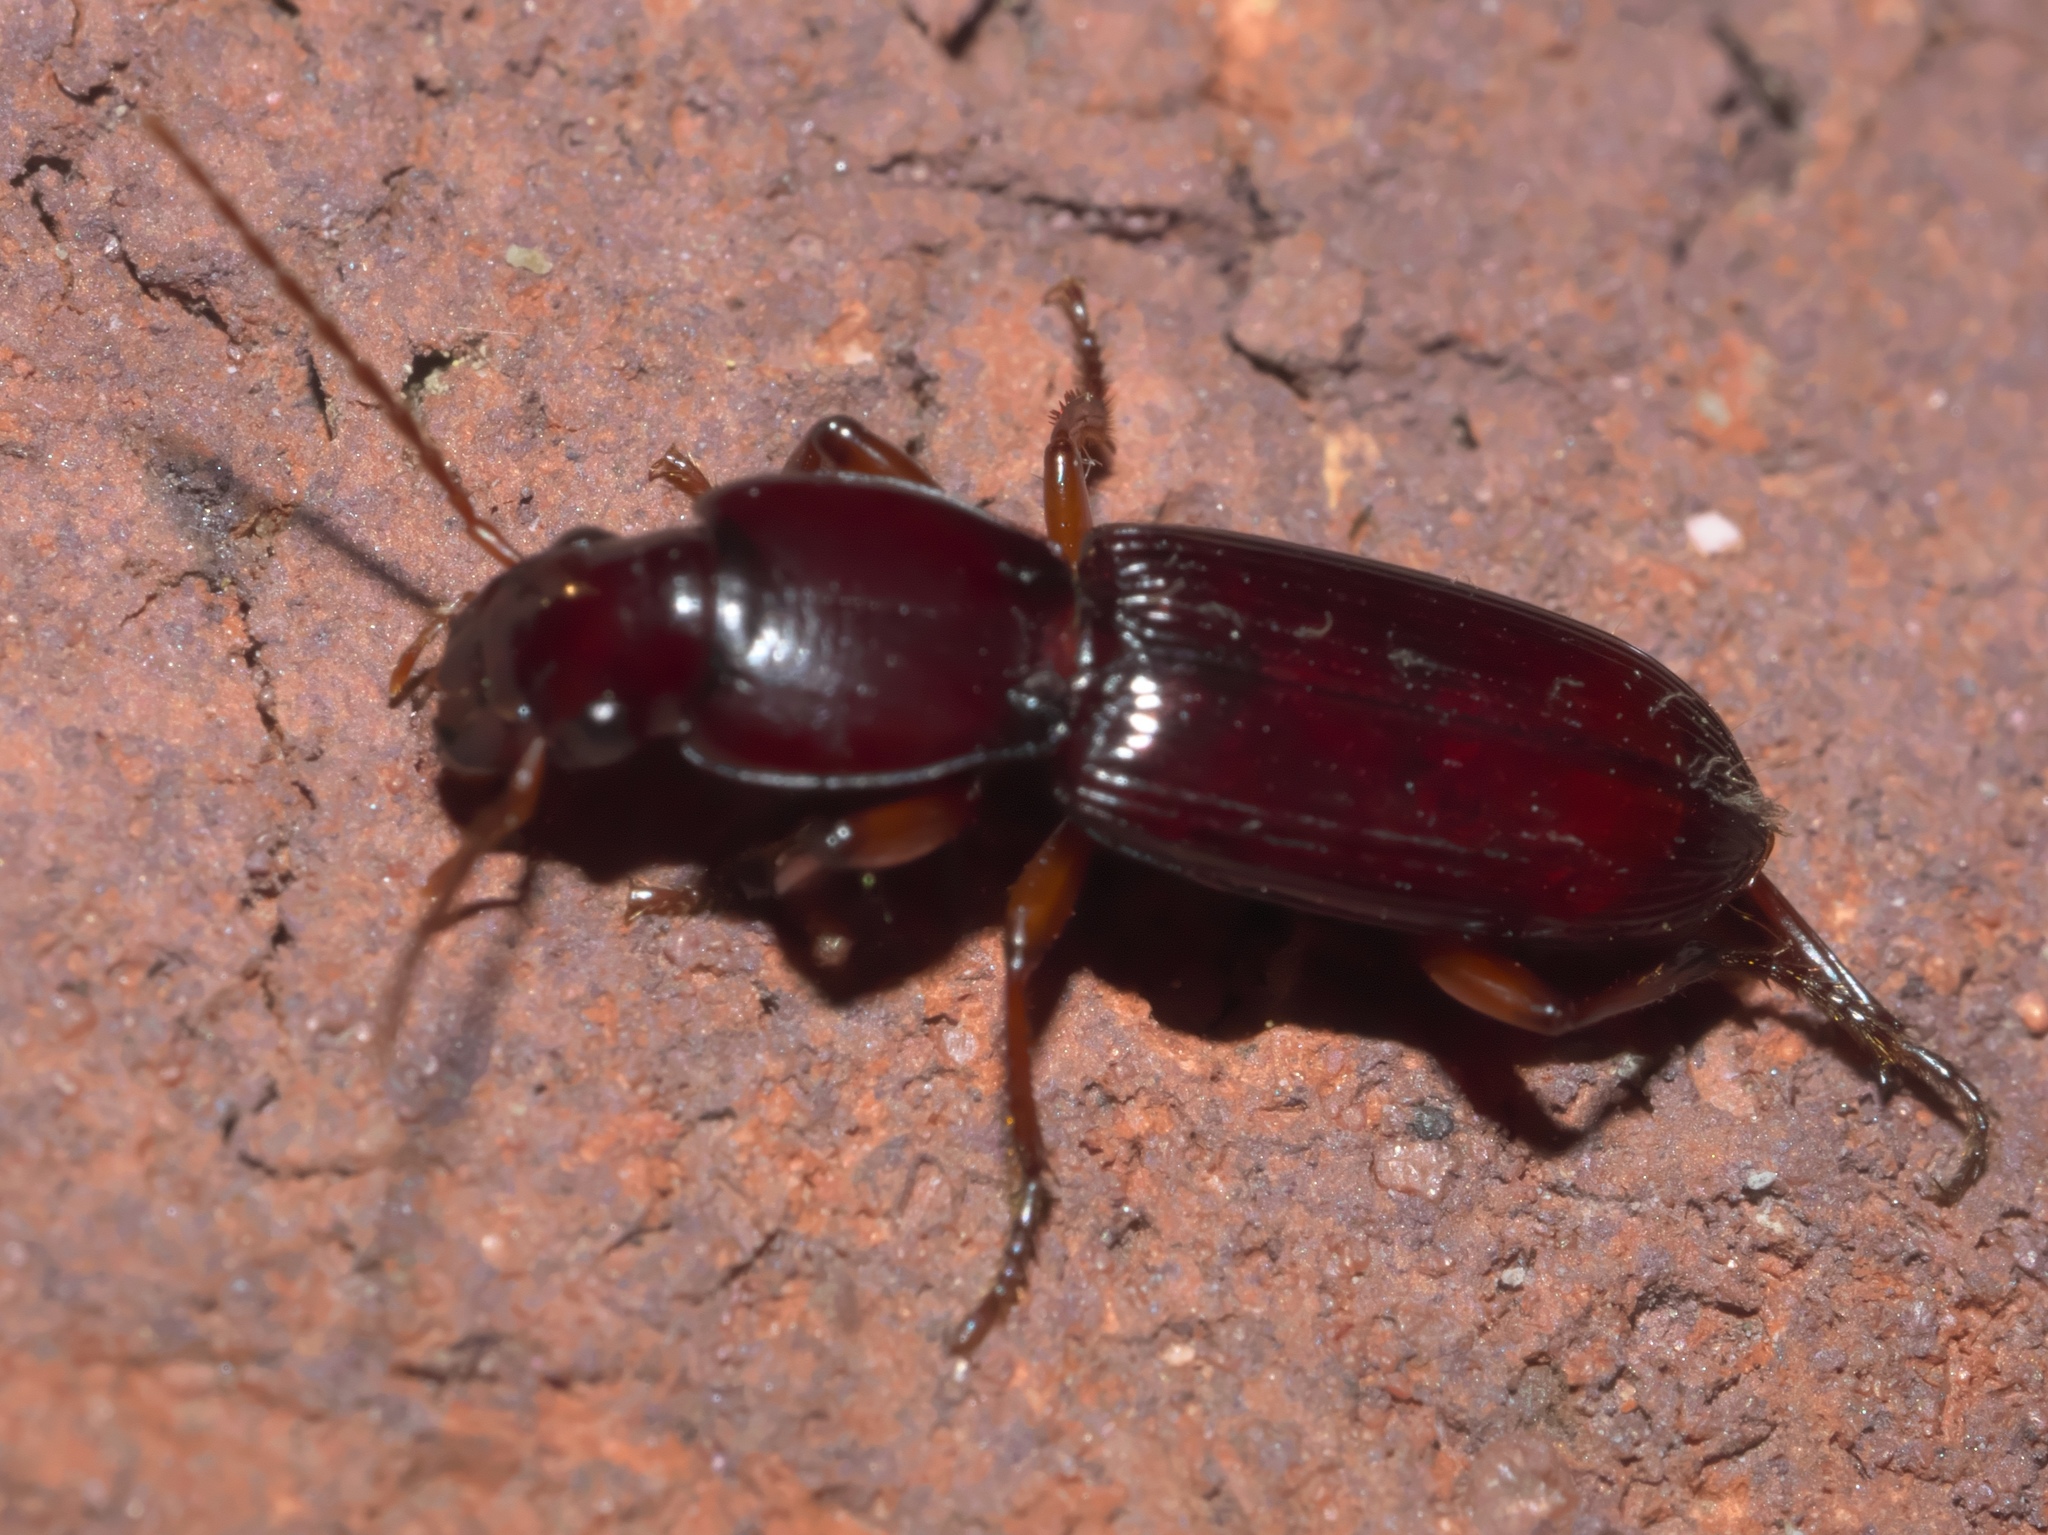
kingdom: Animalia
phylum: Arthropoda
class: Insecta
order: Coleoptera
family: Carabidae
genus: Stenomorphus
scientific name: Stenomorphus californicus
